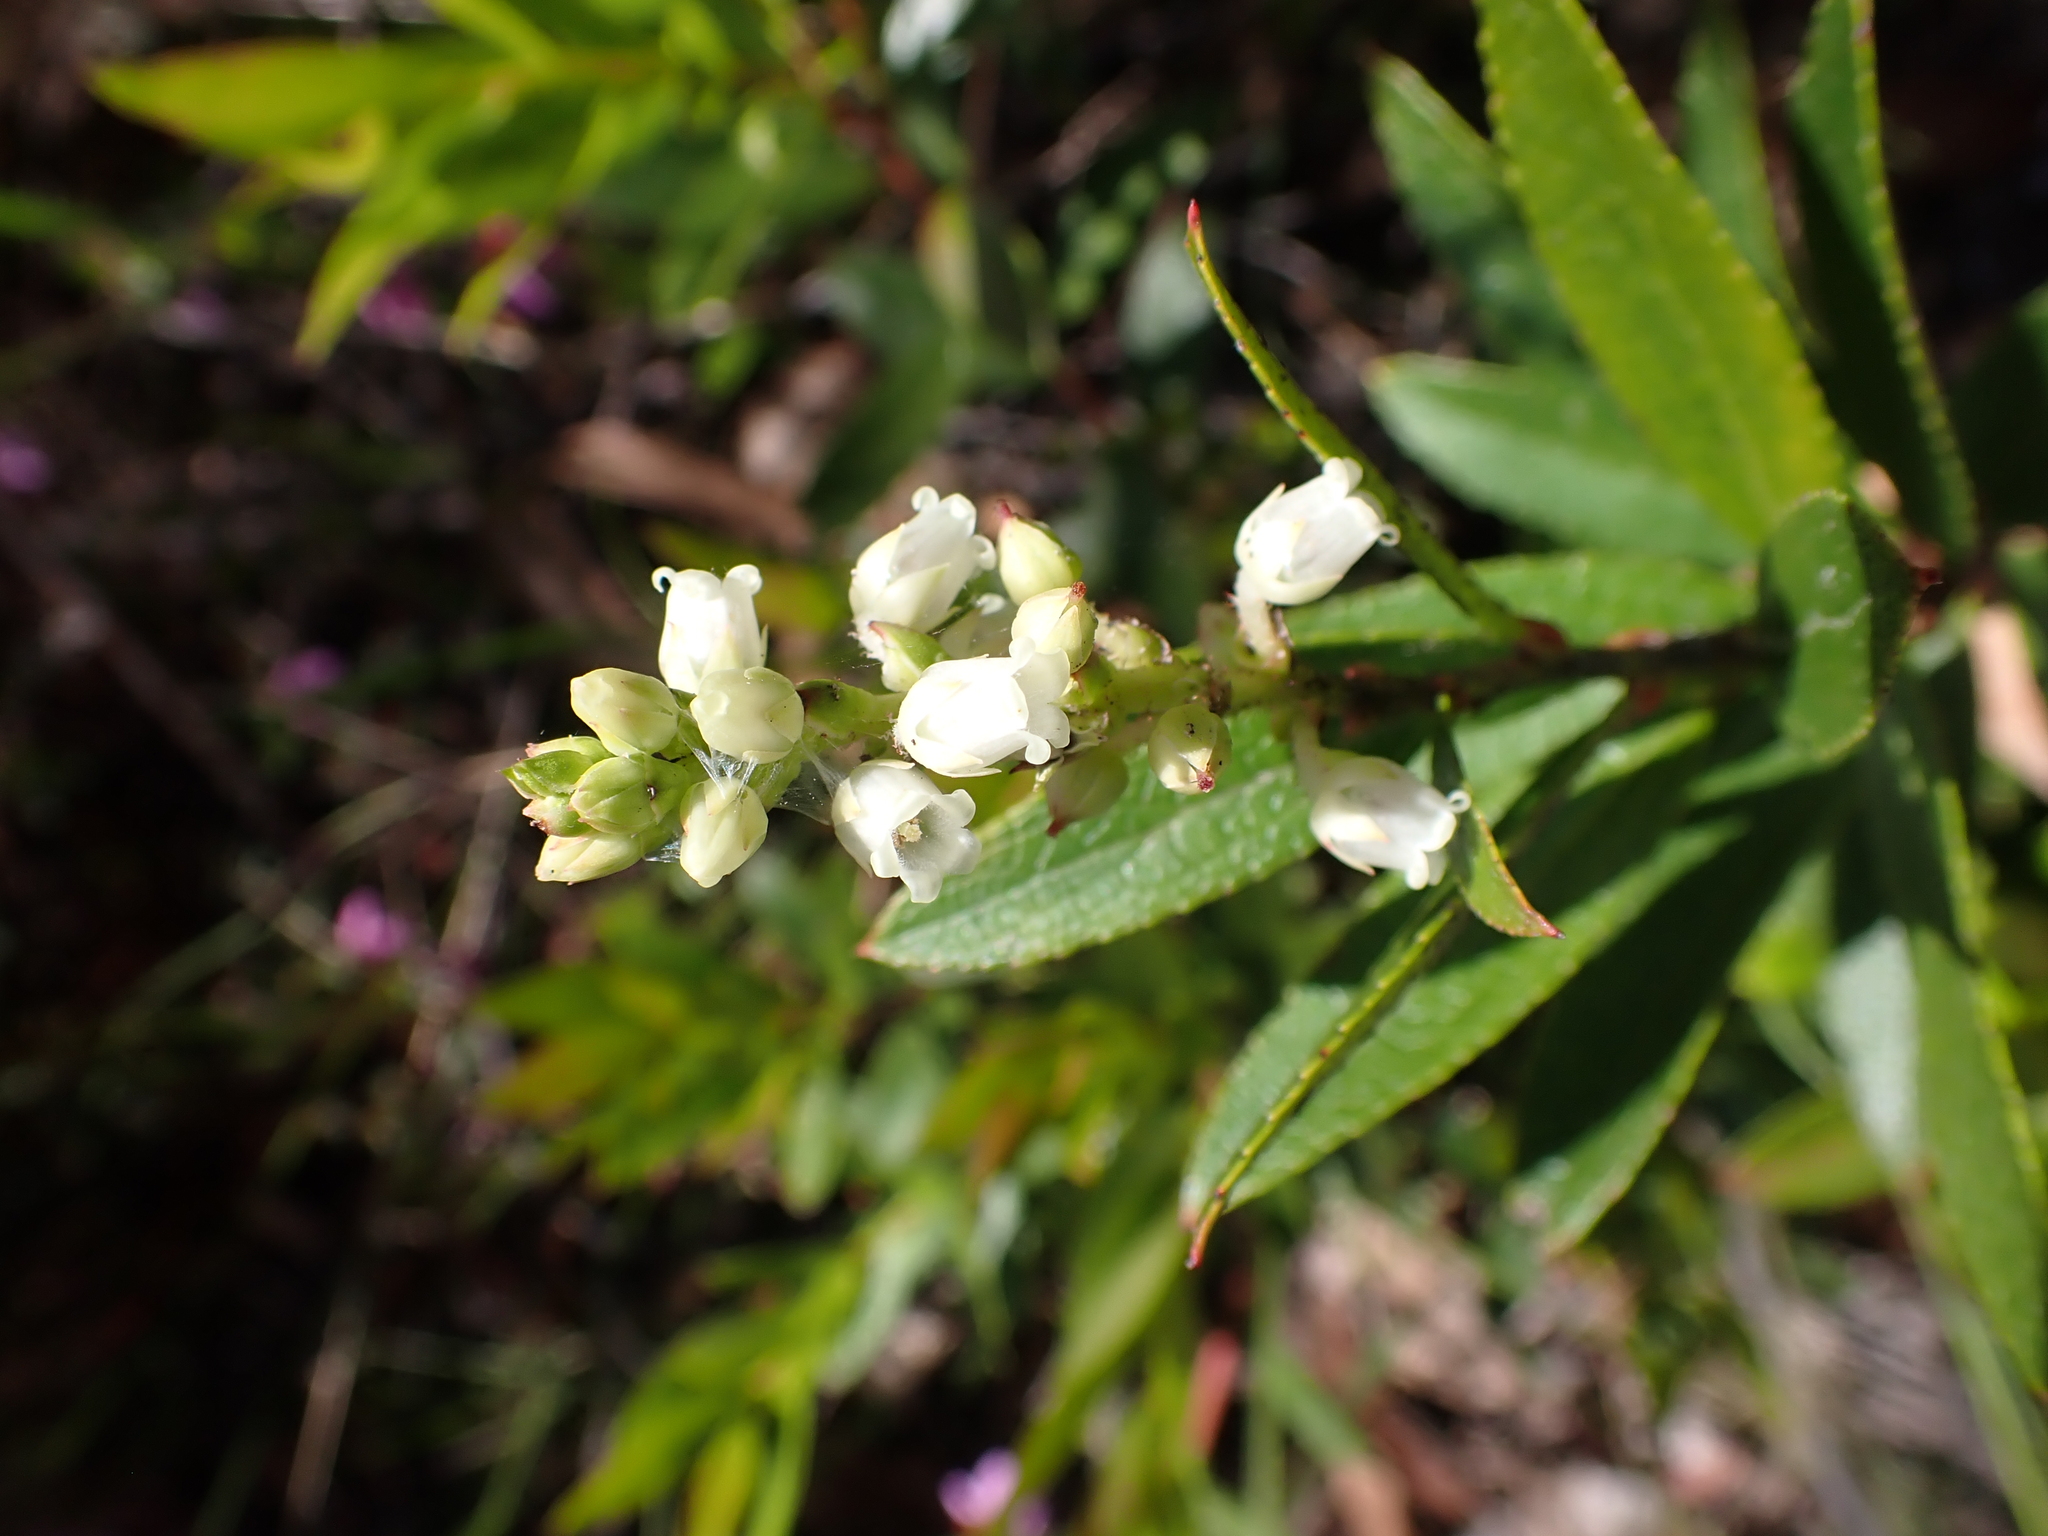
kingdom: Plantae
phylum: Tracheophyta
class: Magnoliopsida
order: Ericales
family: Ericaceae
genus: Gaultheria
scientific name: Gaultheria appressa
